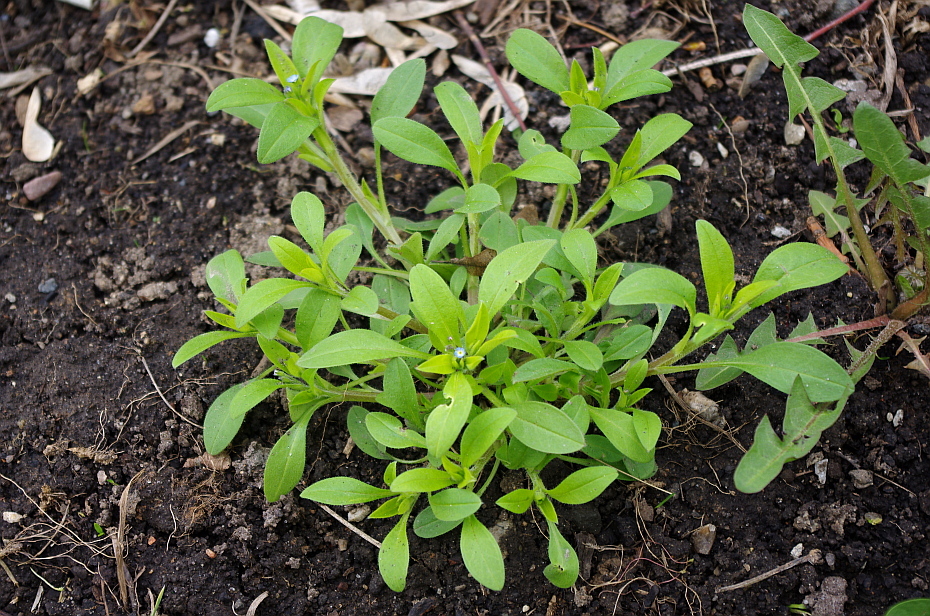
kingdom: Plantae
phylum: Tracheophyta
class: Magnoliopsida
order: Boraginales
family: Boraginaceae
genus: Myosotis
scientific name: Myosotis sparsiflora
